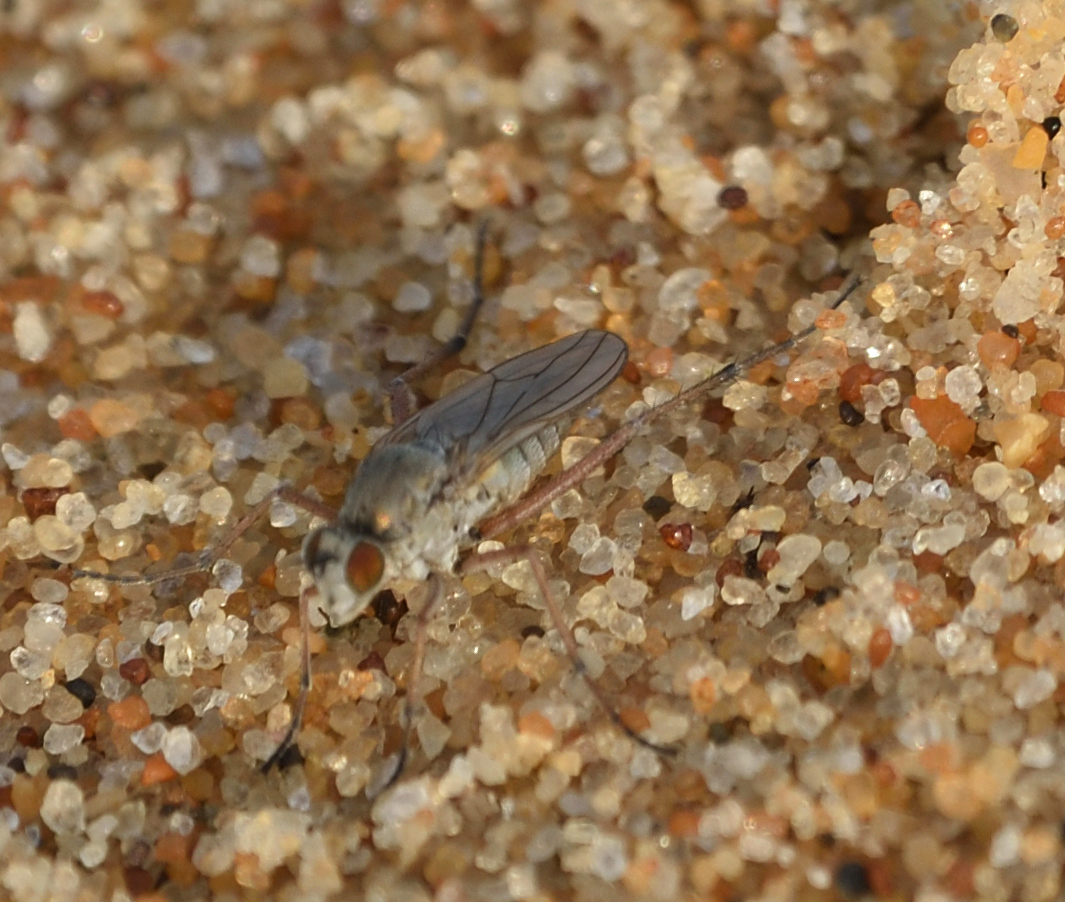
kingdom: Animalia
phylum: Arthropoda
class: Insecta
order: Diptera
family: Dolichopodidae
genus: Hypocharassus
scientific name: Hypocharassus pruinosus
